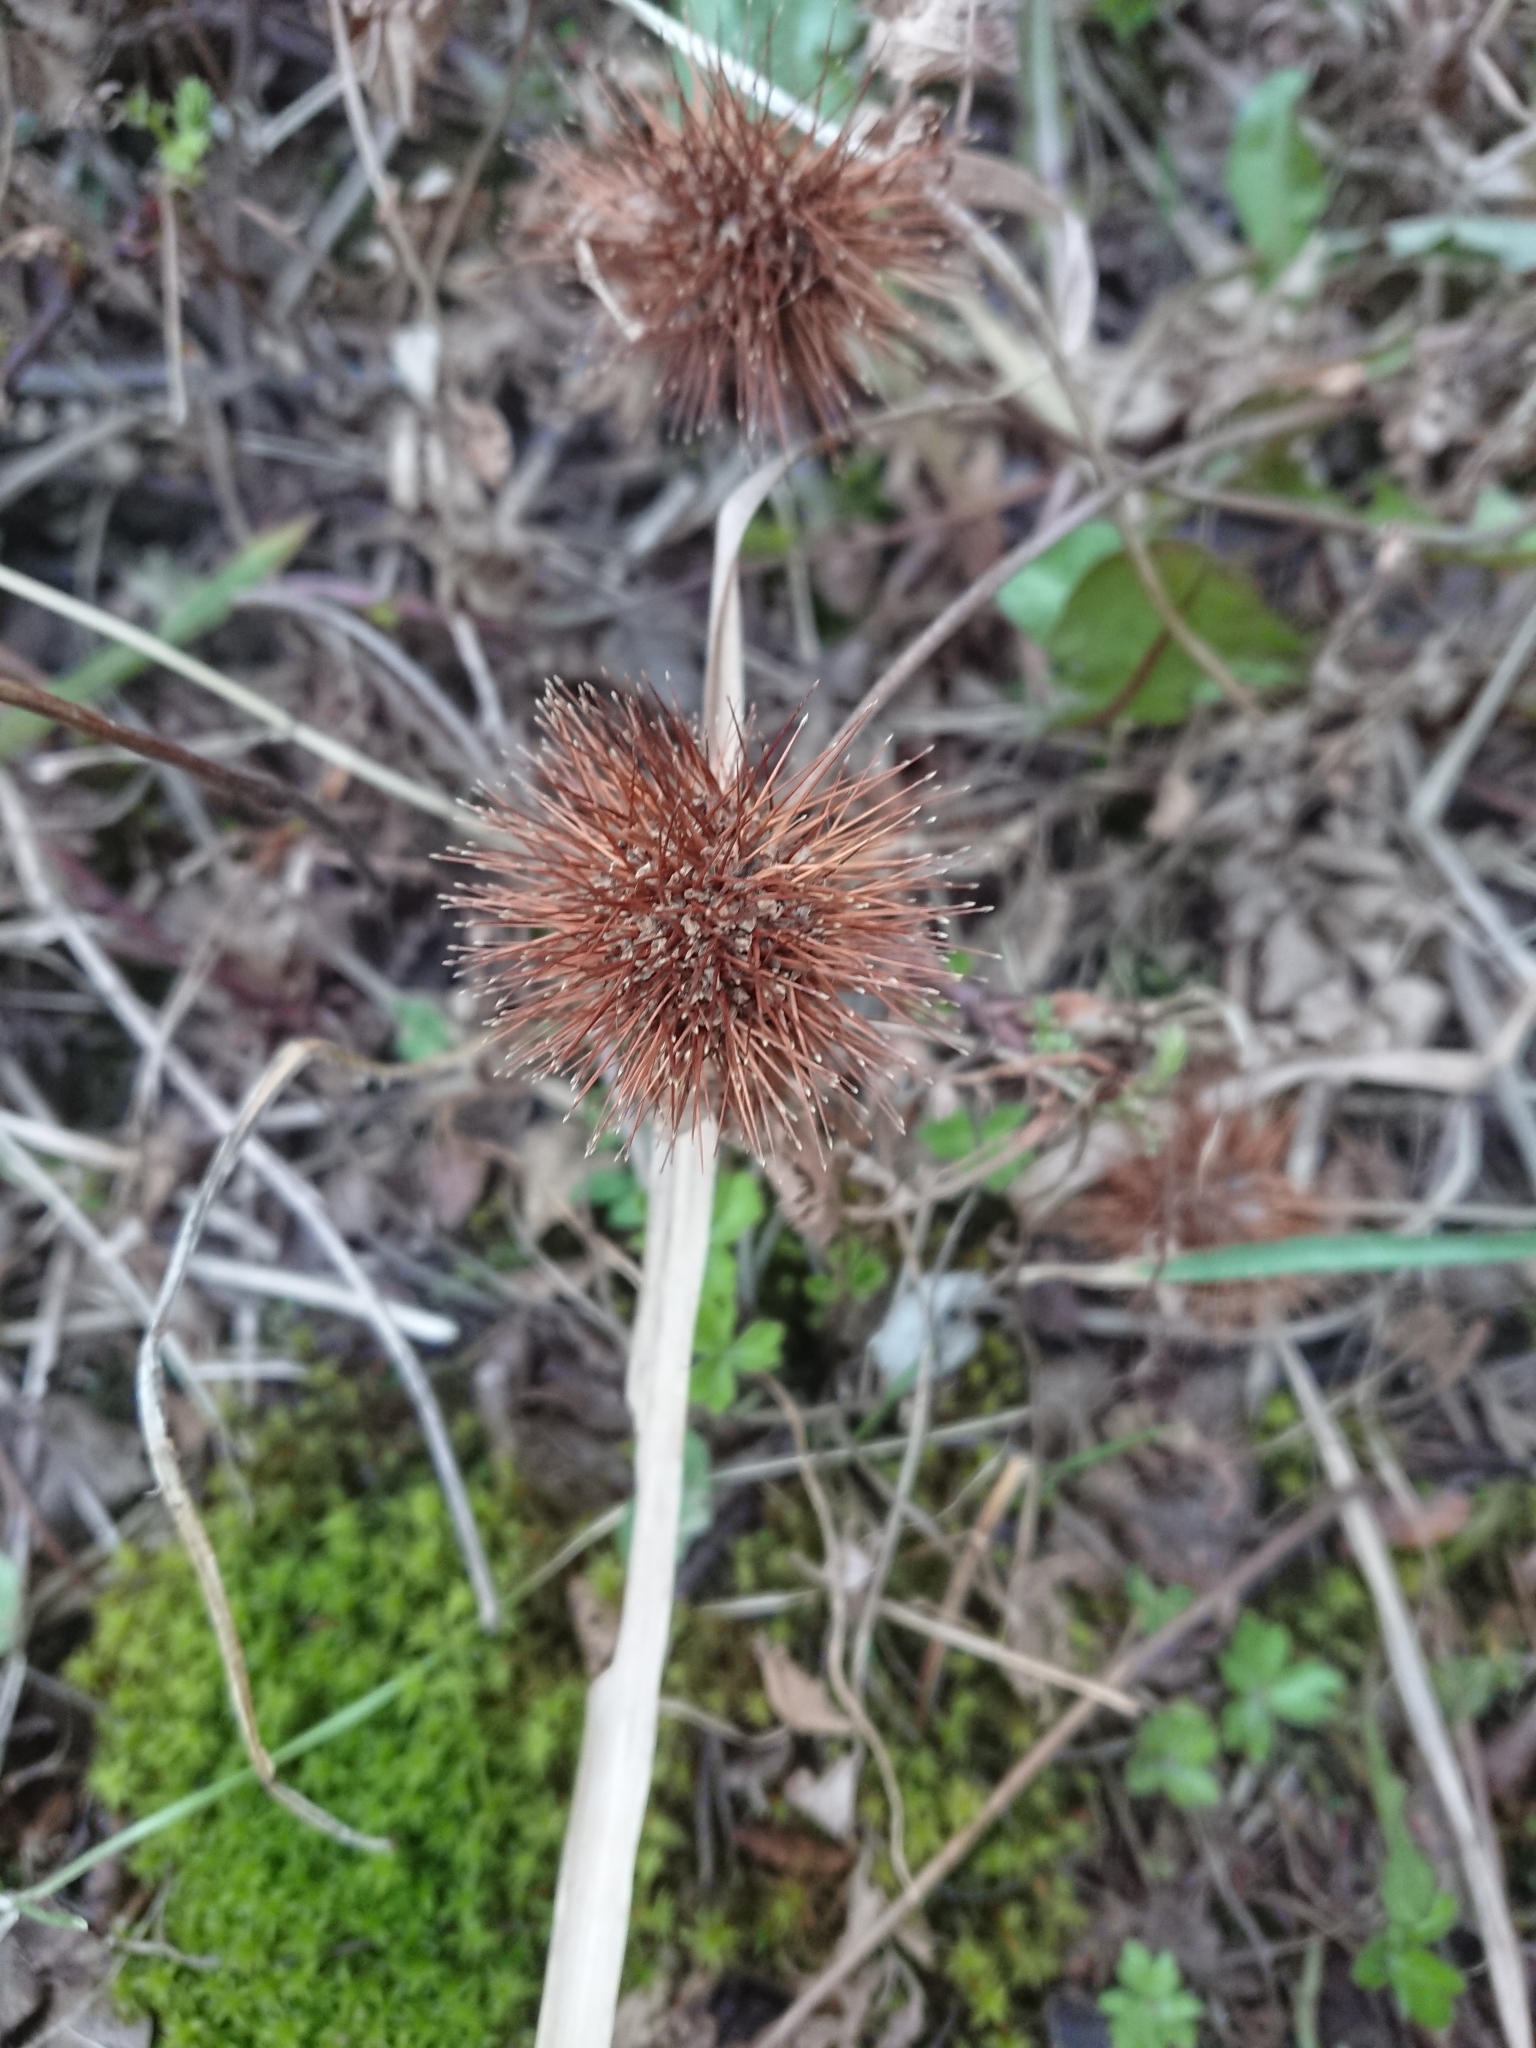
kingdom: Plantae
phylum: Tracheophyta
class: Magnoliopsida
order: Rosales
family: Rosaceae
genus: Acaena
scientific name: Acaena magellanica
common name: New zealand burr
